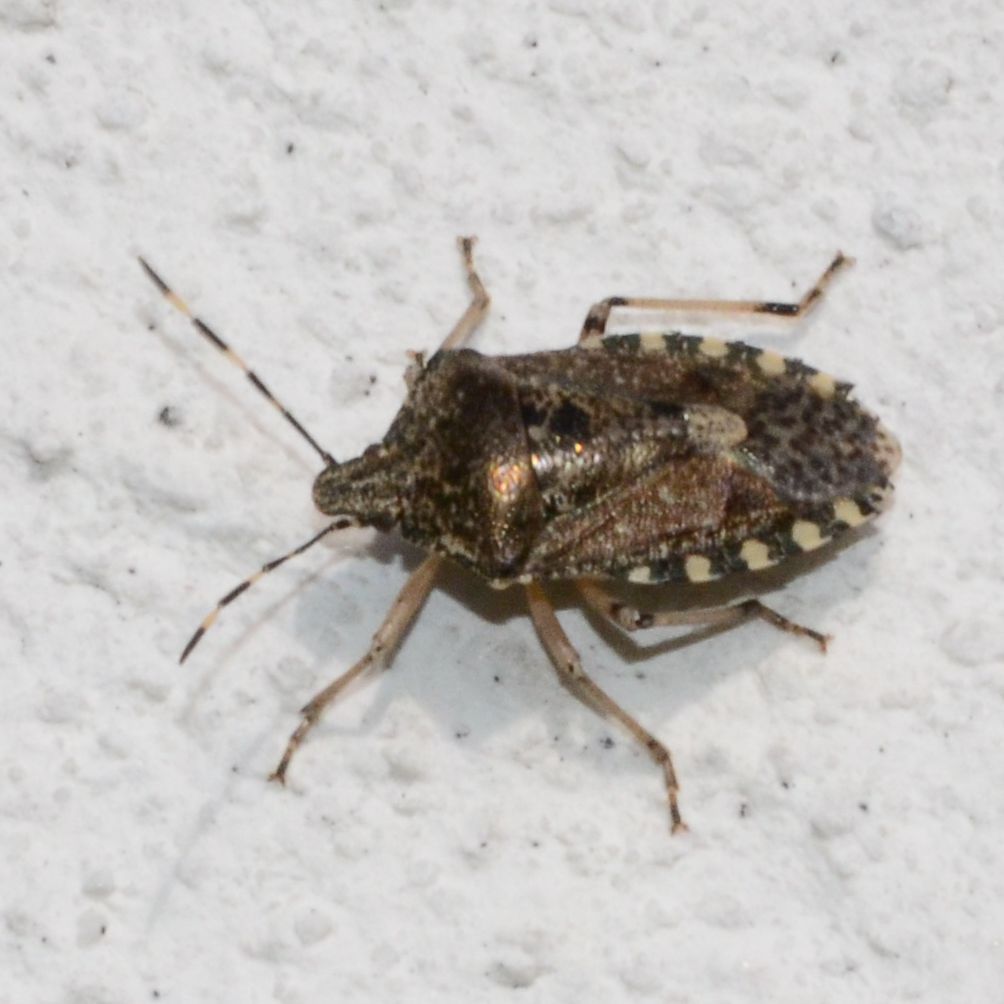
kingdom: Animalia
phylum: Arthropoda
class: Insecta
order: Hemiptera
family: Pentatomidae
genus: Rhaphigaster
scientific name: Rhaphigaster nebulosa
